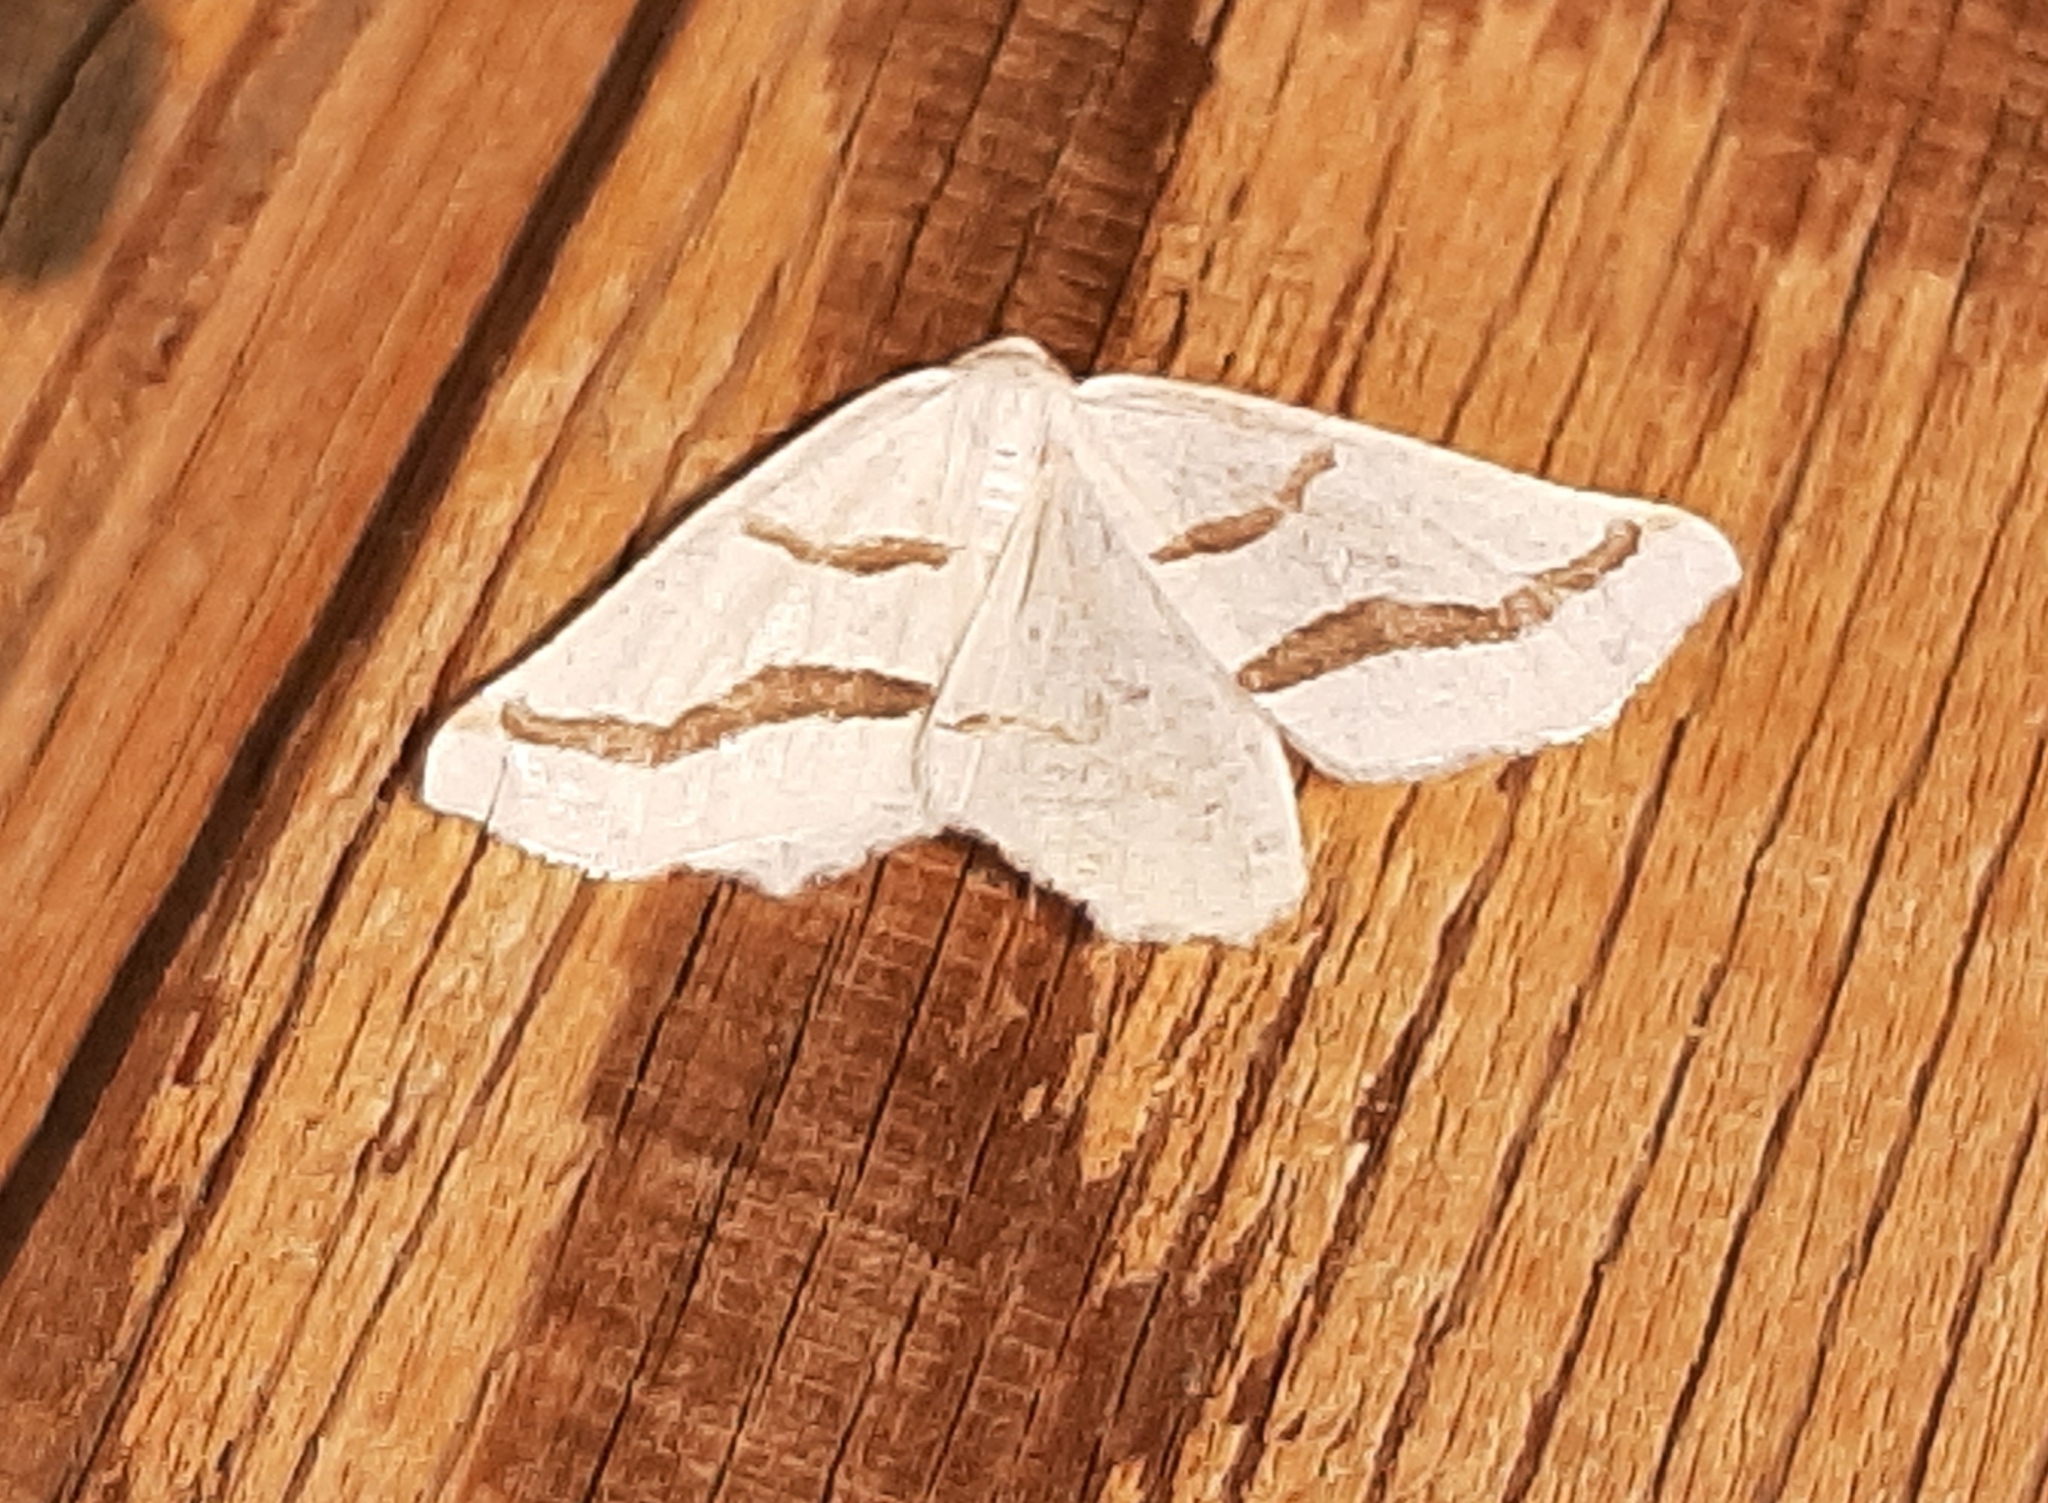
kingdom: Animalia
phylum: Arthropoda
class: Insecta
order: Lepidoptera
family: Geometridae
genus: Eriplatymetra
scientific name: Eriplatymetra coloradaria
